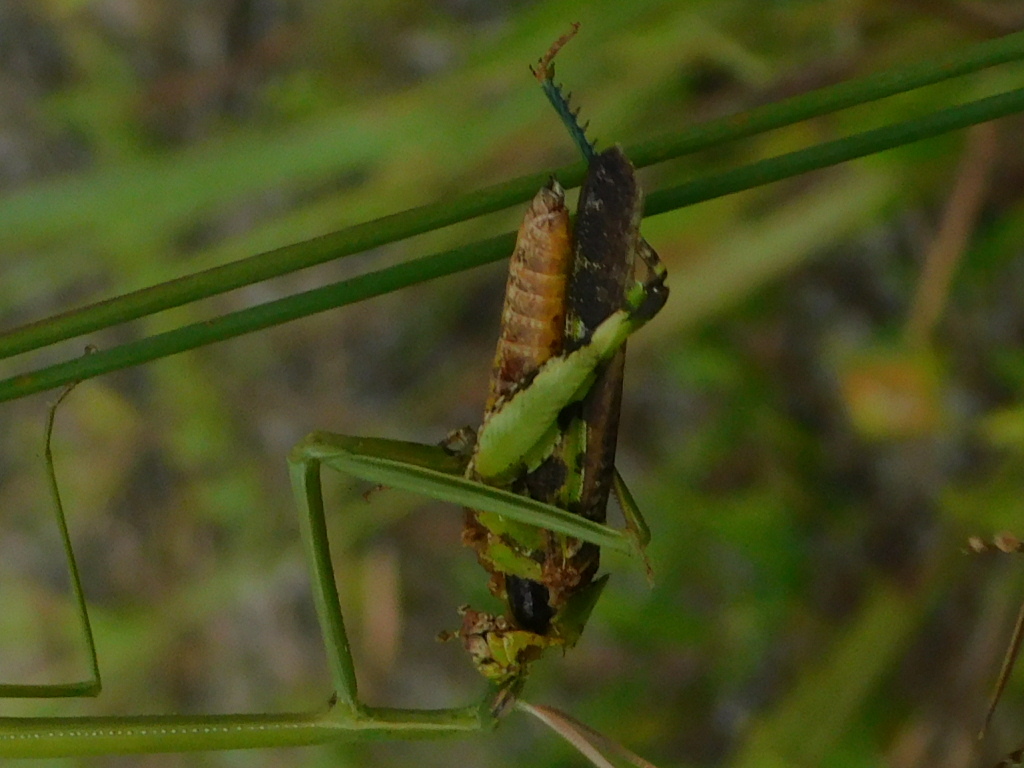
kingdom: Animalia
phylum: Arthropoda
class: Insecta
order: Orthoptera
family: Acrididae
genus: Chortophaga
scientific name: Chortophaga australior
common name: Southern green-striped grasshopper
